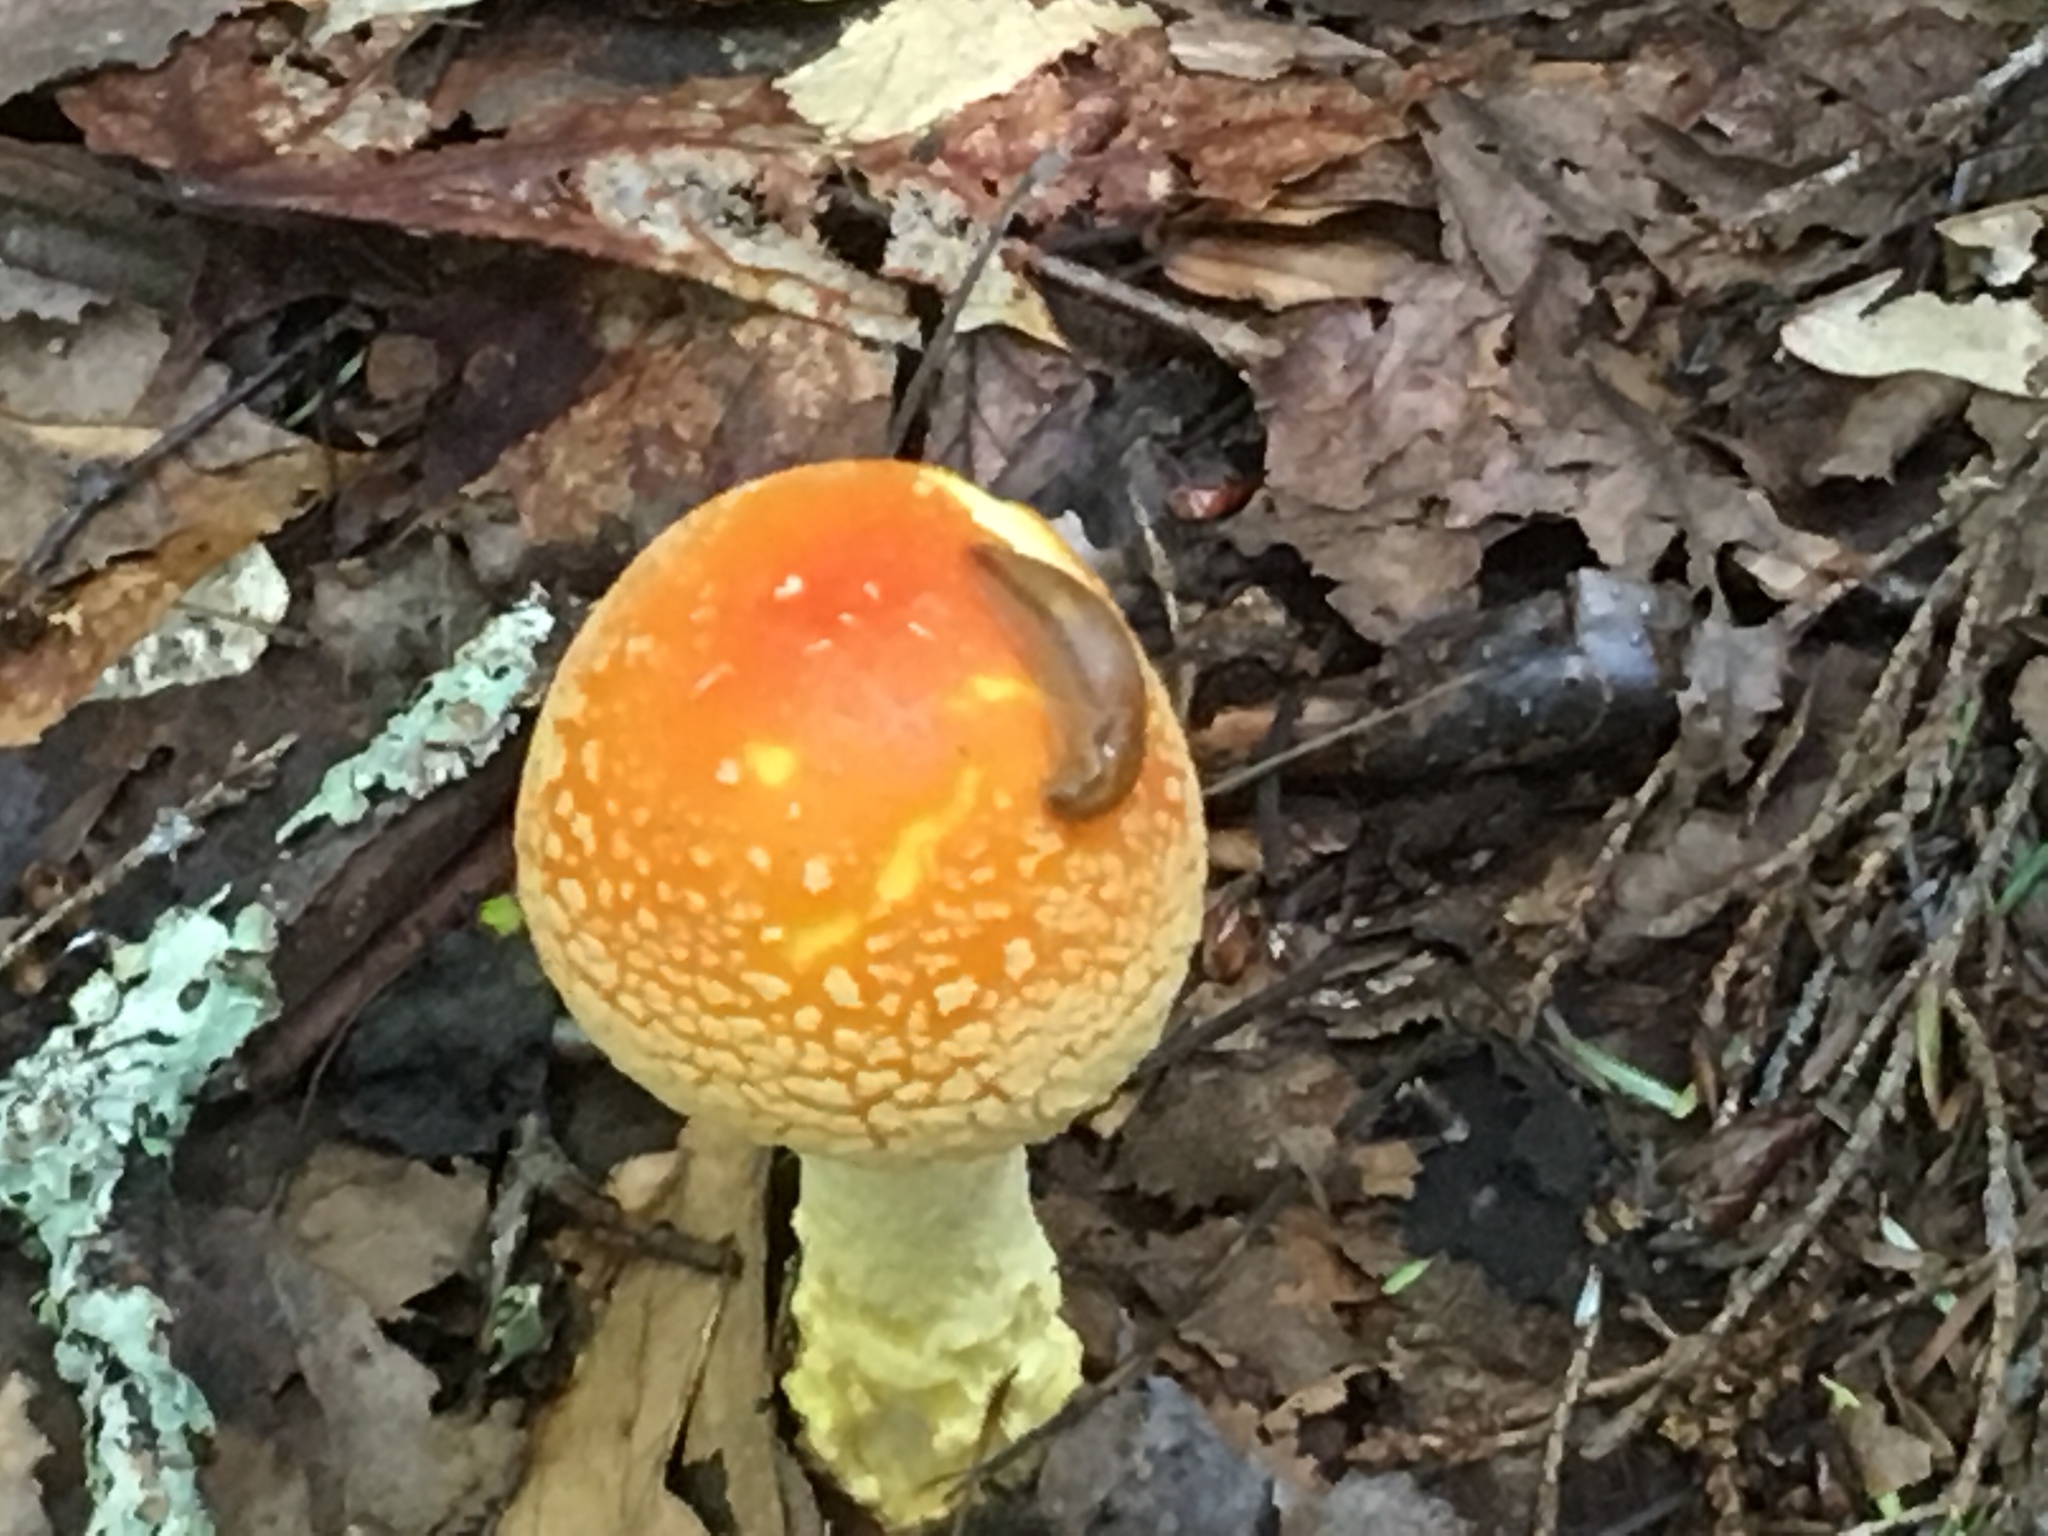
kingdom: Fungi
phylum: Basidiomycota
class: Agaricomycetes
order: Agaricales
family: Amanitaceae
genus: Amanita
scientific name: Amanita muscaria
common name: Fly agaric
